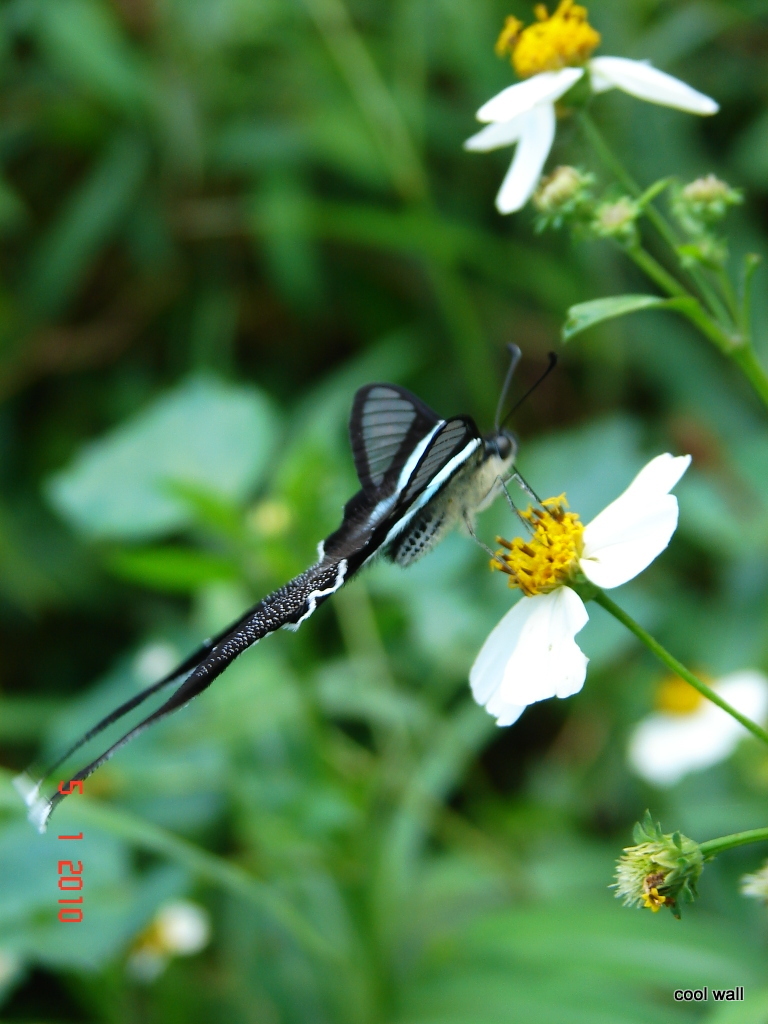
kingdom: Animalia
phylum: Arthropoda
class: Insecta
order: Lepidoptera
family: Papilionidae
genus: Lamproptera
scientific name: Lamproptera meges
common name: Green dragontail
